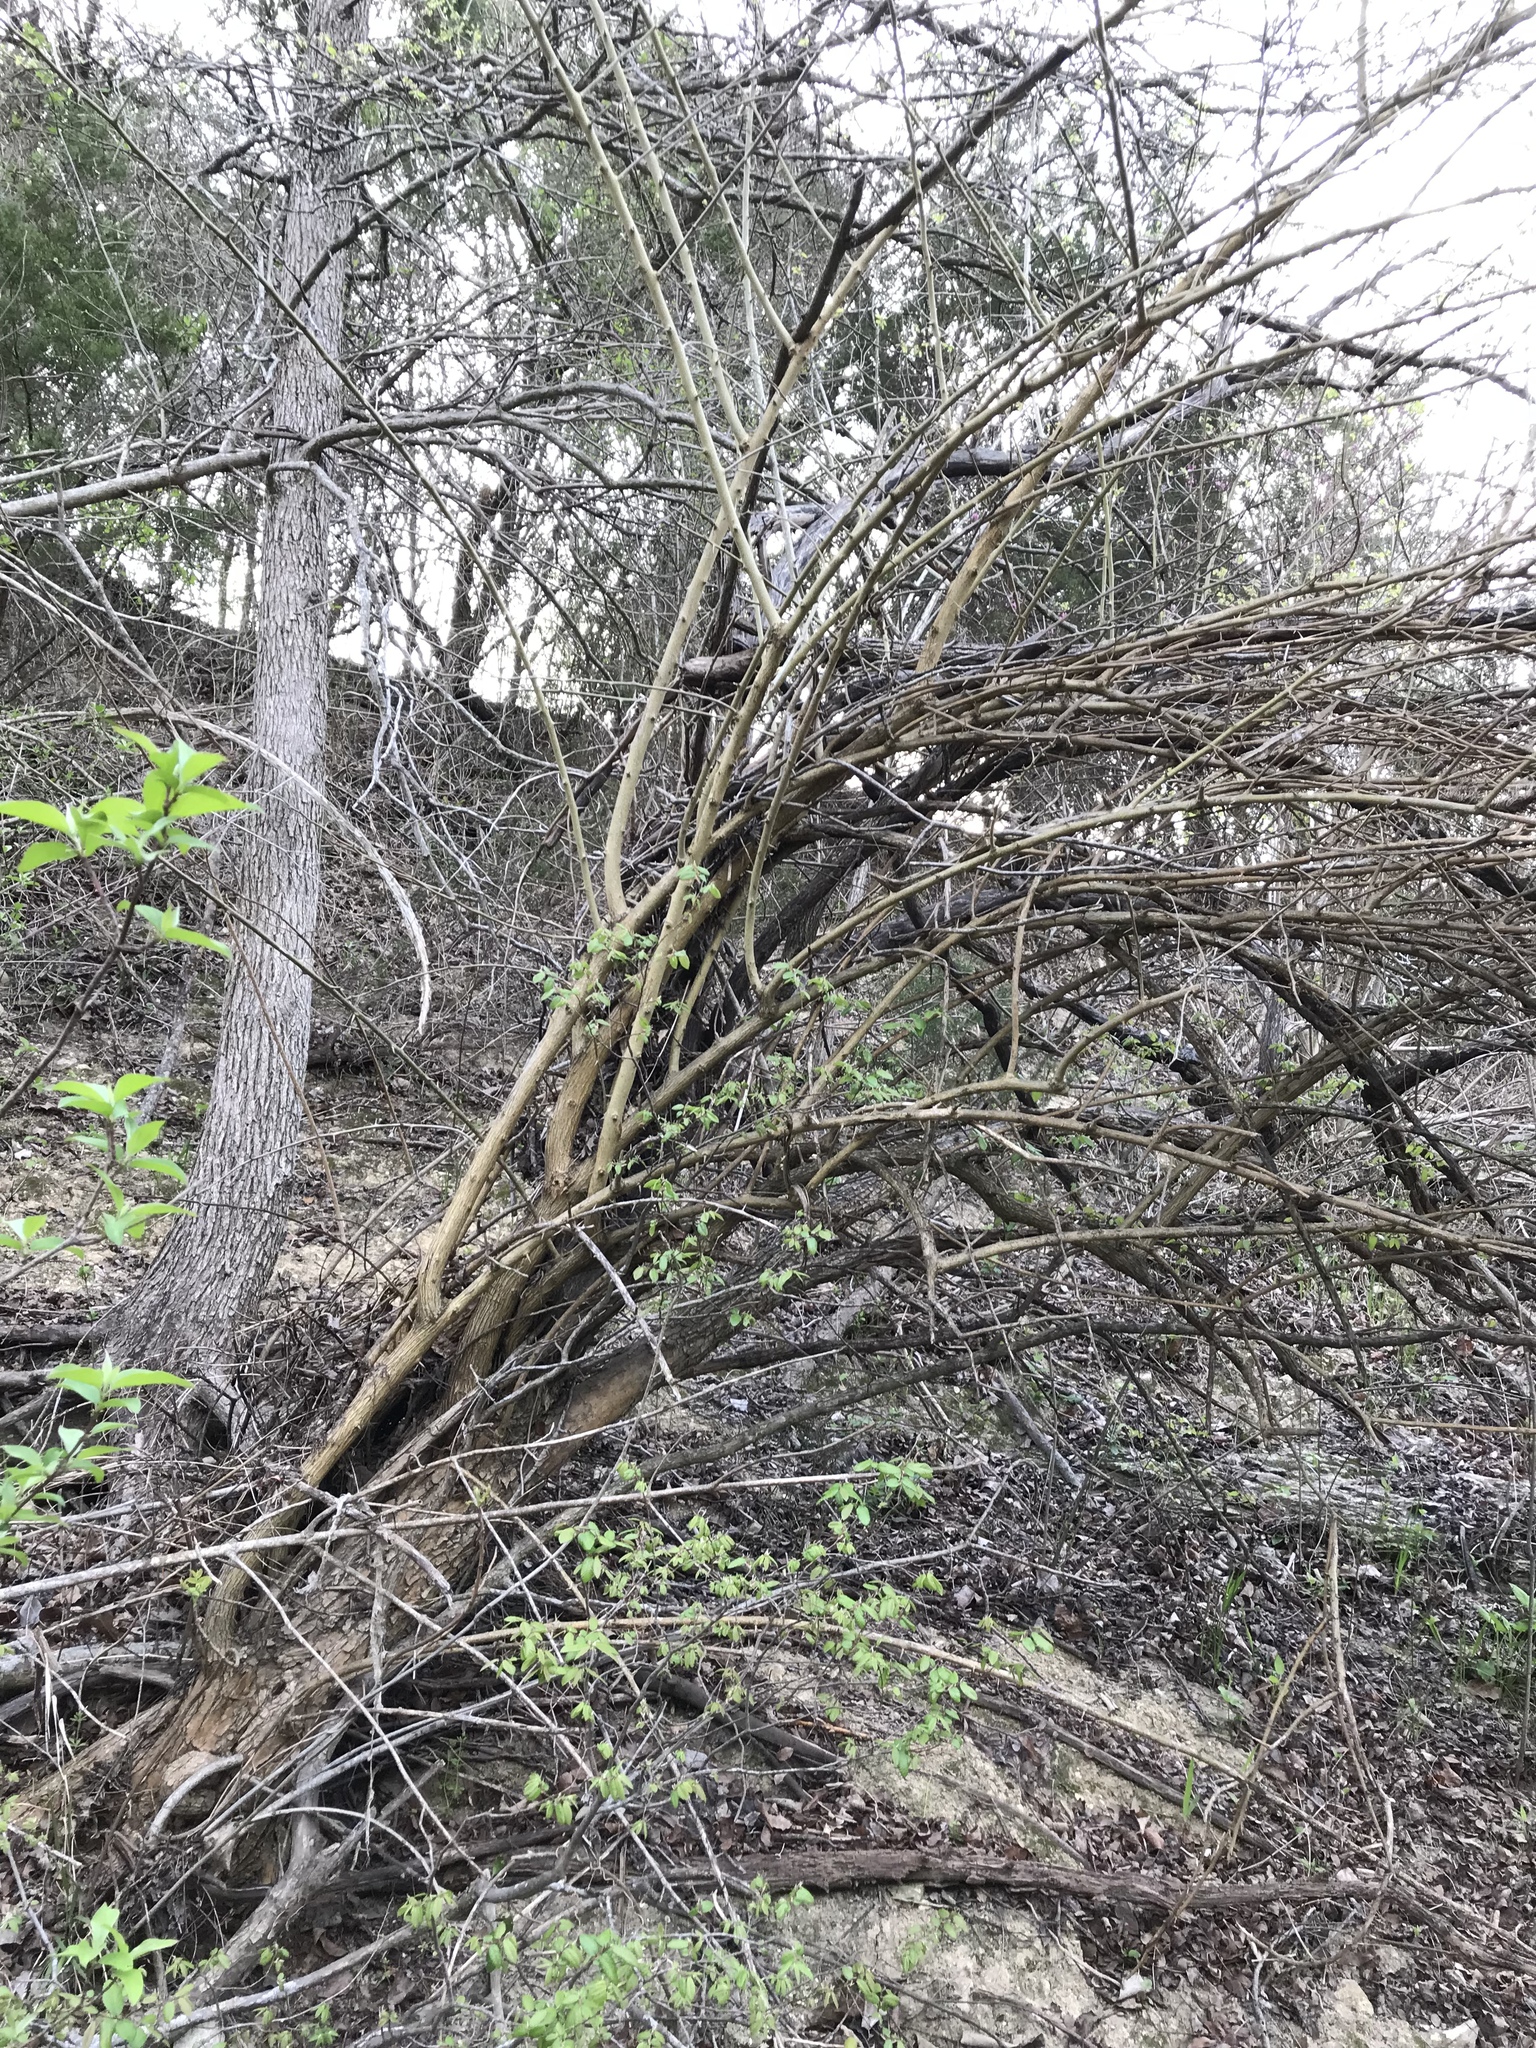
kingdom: Plantae
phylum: Tracheophyta
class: Magnoliopsida
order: Rosales
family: Moraceae
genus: Maclura
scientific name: Maclura pomifera
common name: Osage-orange
